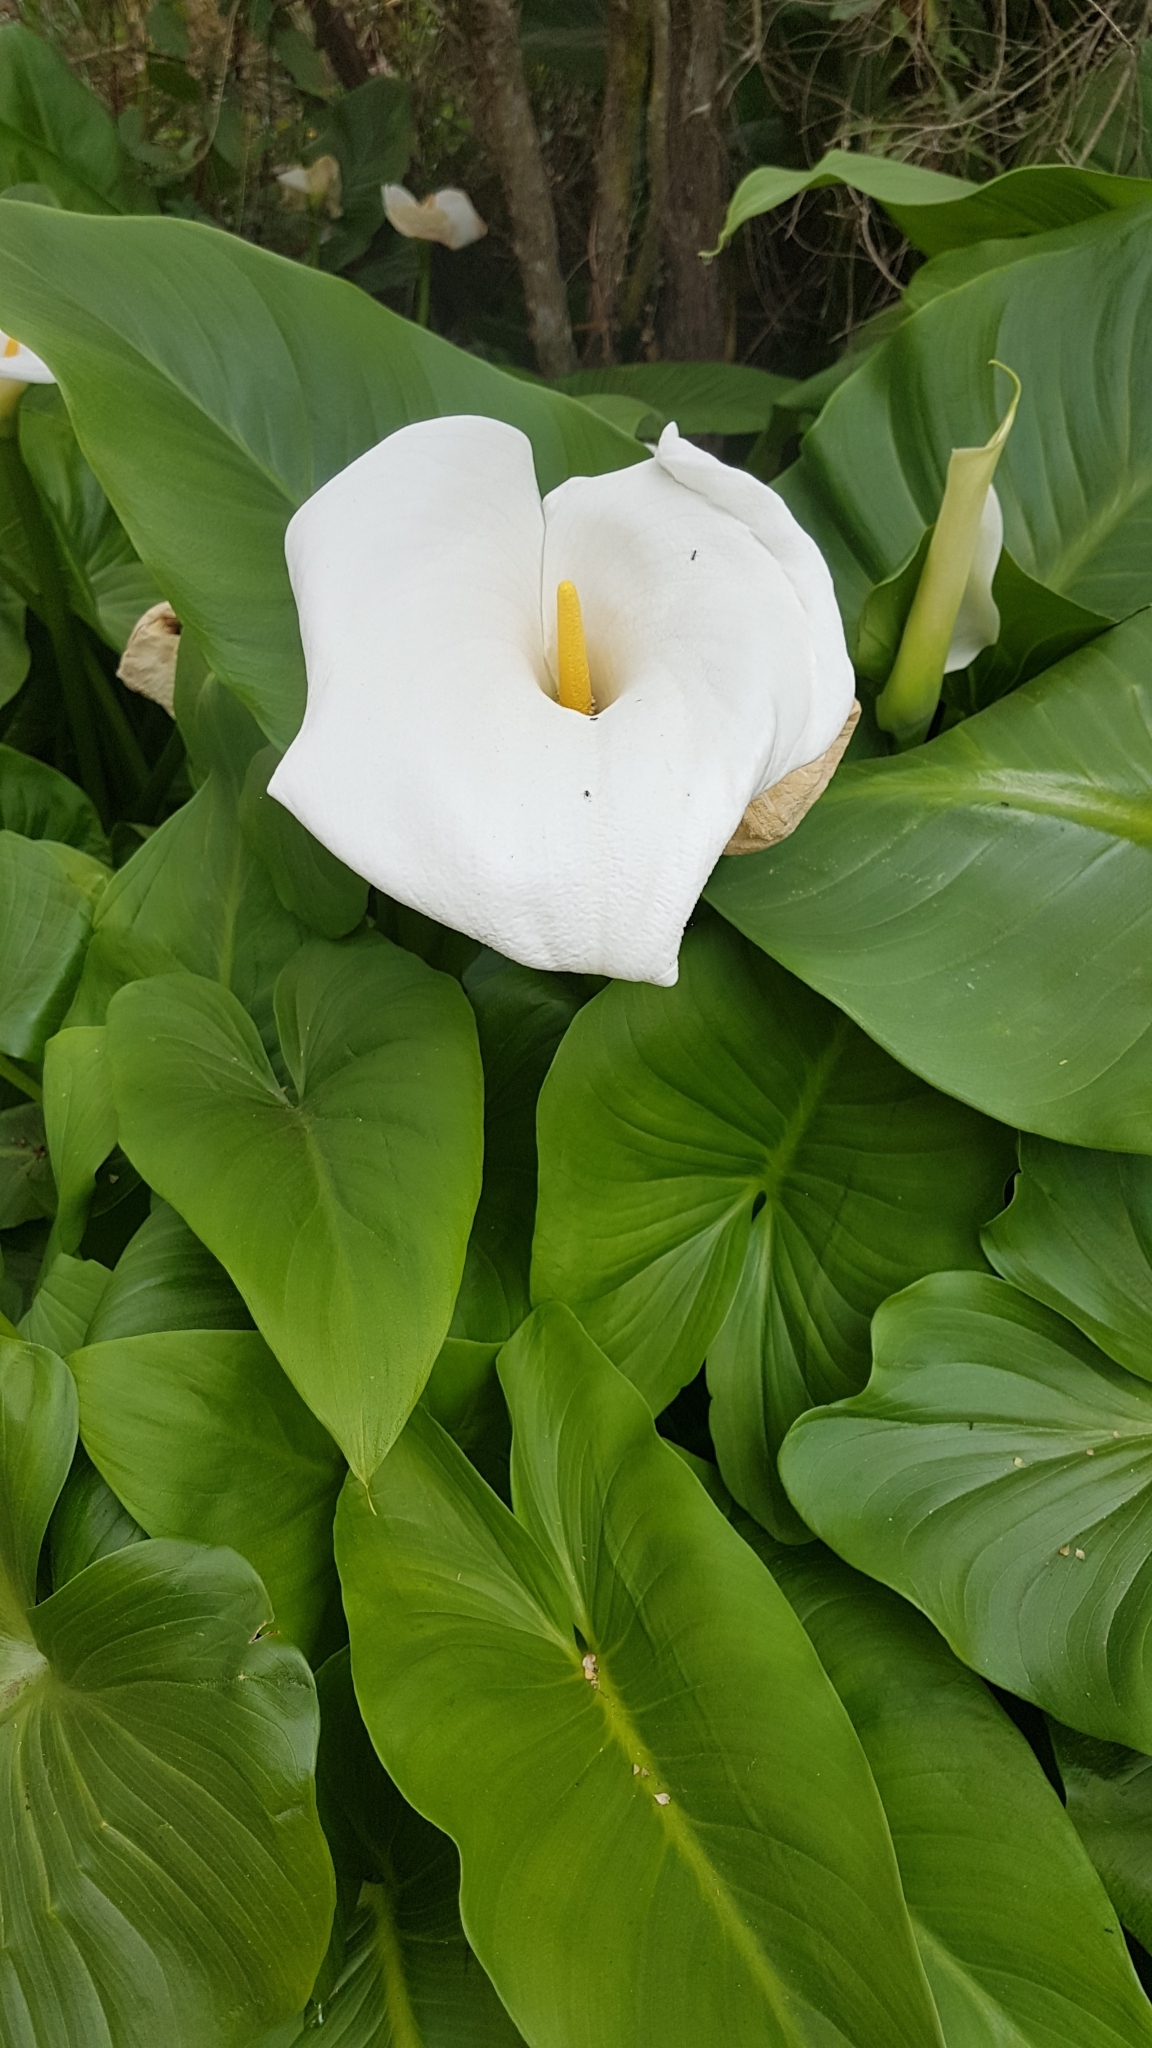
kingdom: Plantae
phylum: Tracheophyta
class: Liliopsida
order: Alismatales
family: Araceae
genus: Zantedeschia
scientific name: Zantedeschia aethiopica
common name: Altar-lily
